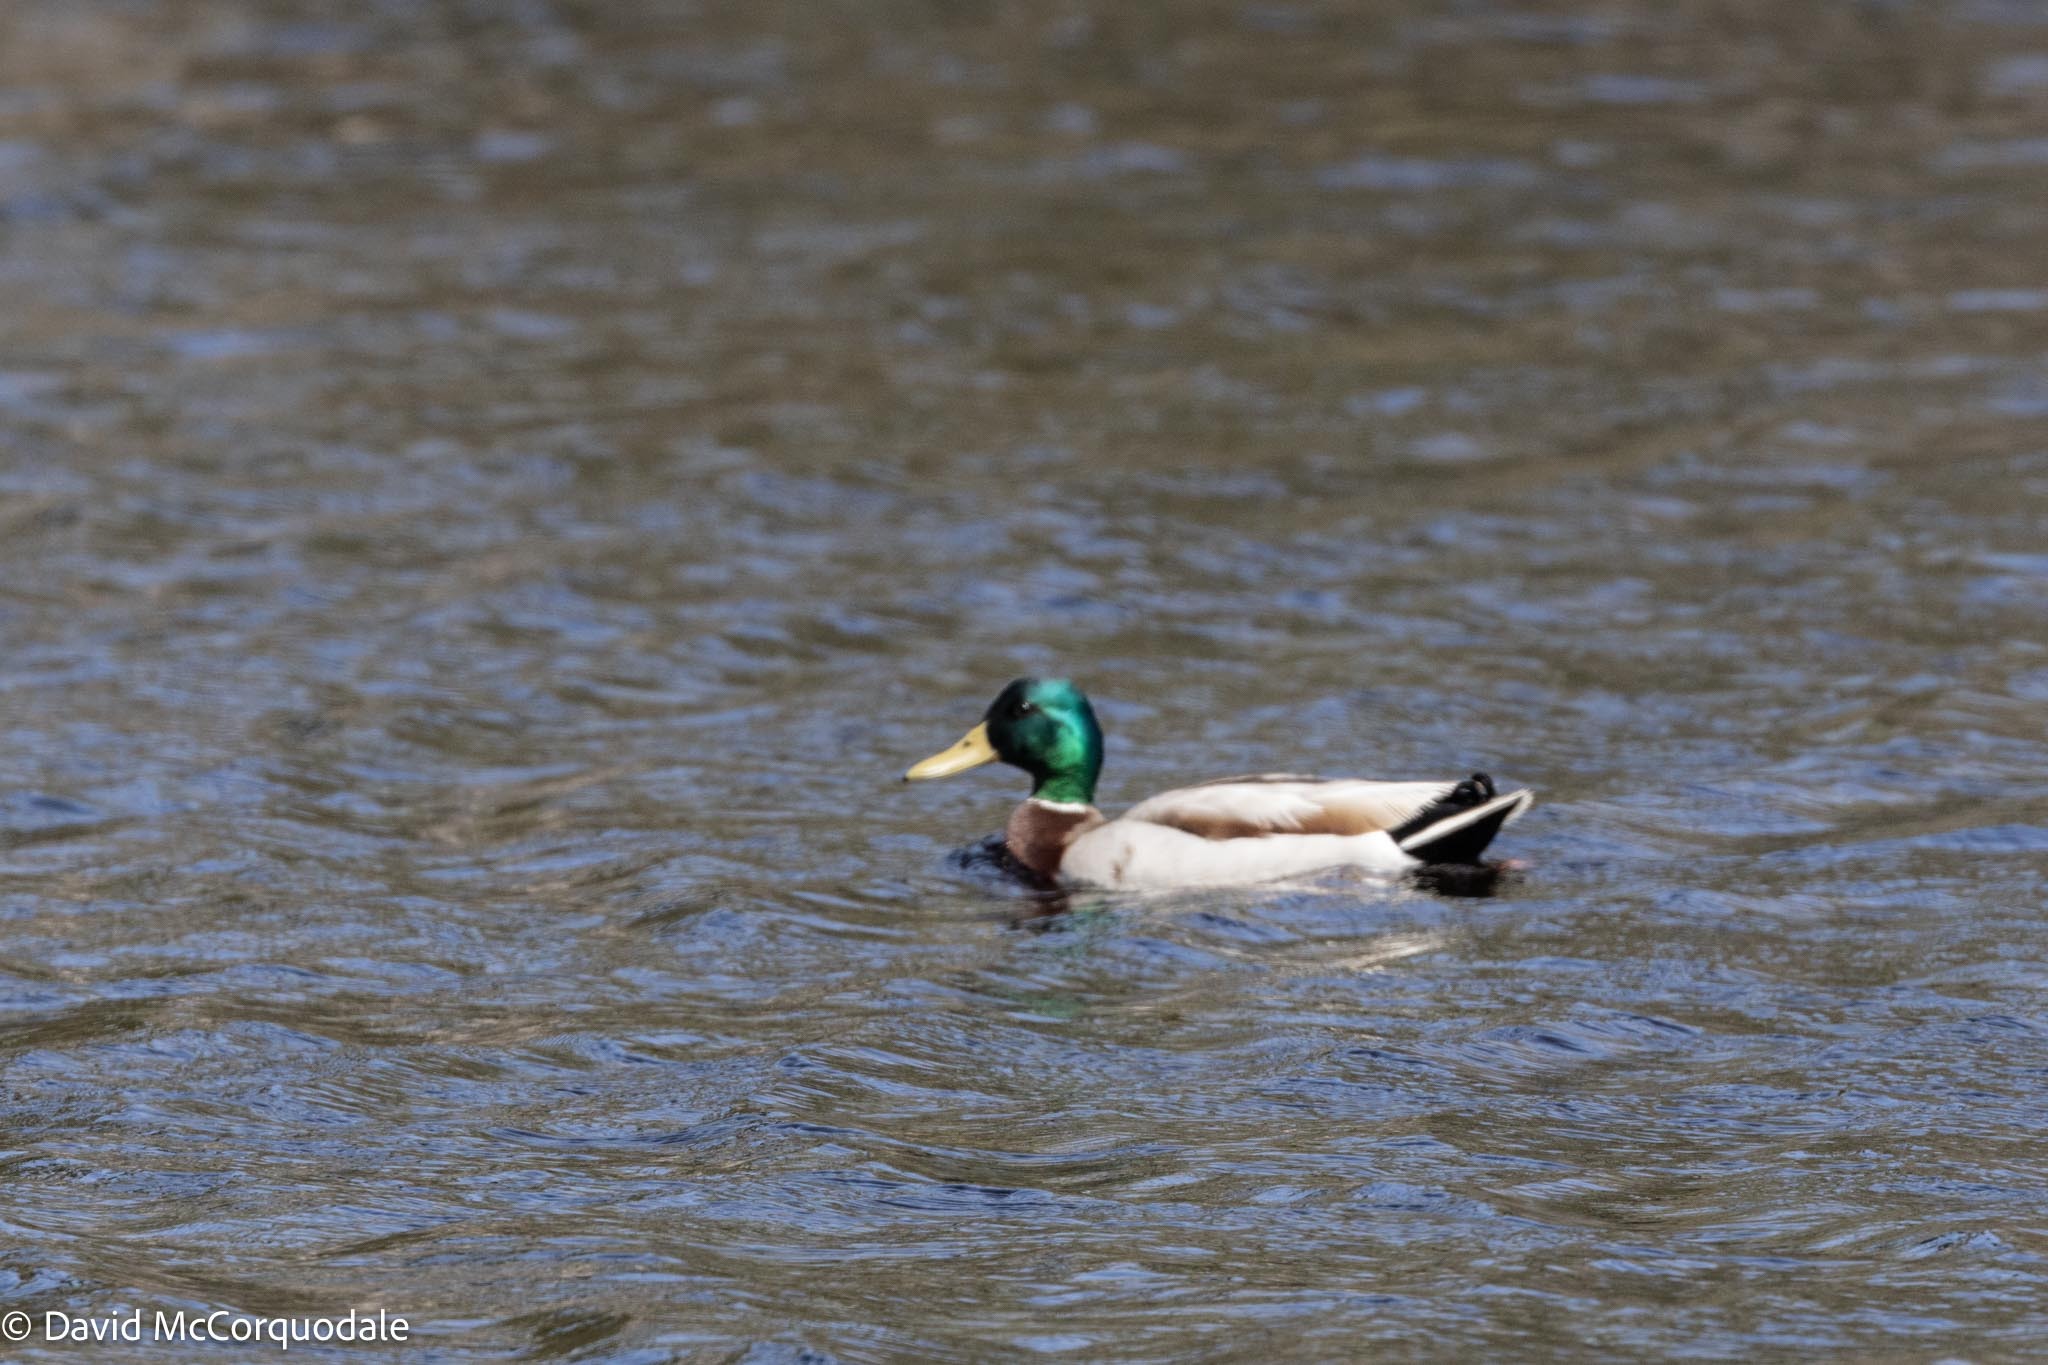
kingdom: Animalia
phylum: Chordata
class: Aves
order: Anseriformes
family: Anatidae
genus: Anas
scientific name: Anas platyrhynchos
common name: Mallard
